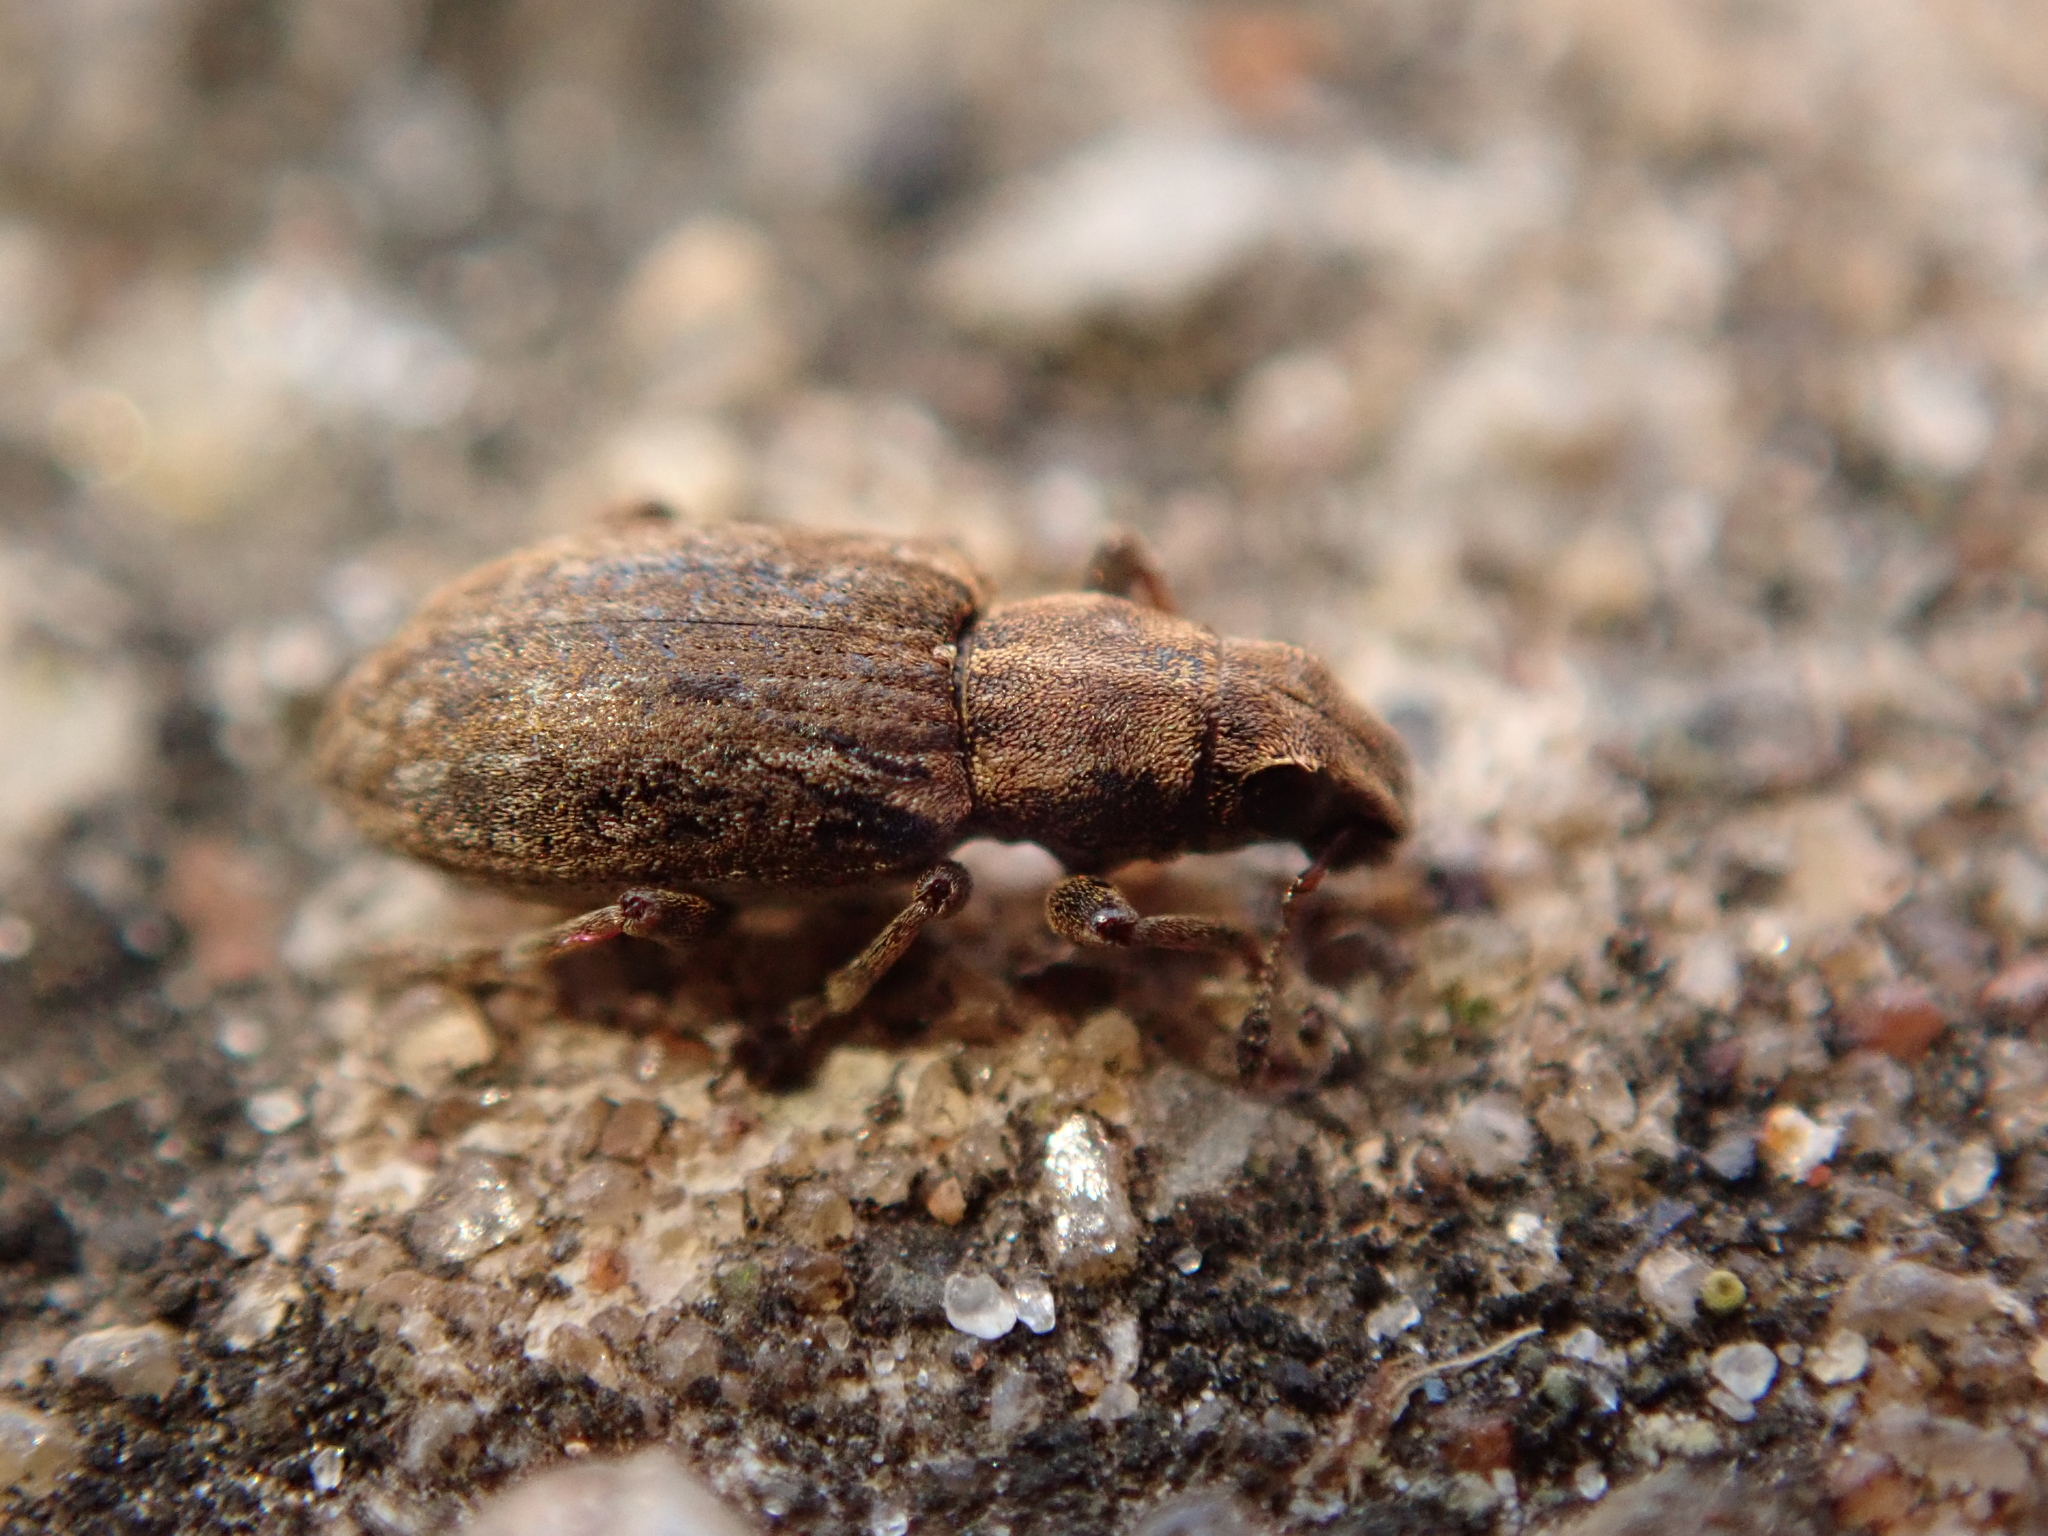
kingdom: Animalia
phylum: Arthropoda
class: Insecta
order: Coleoptera
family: Curculionidae
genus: Sitona
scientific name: Sitona obsoletus
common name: Weevil
